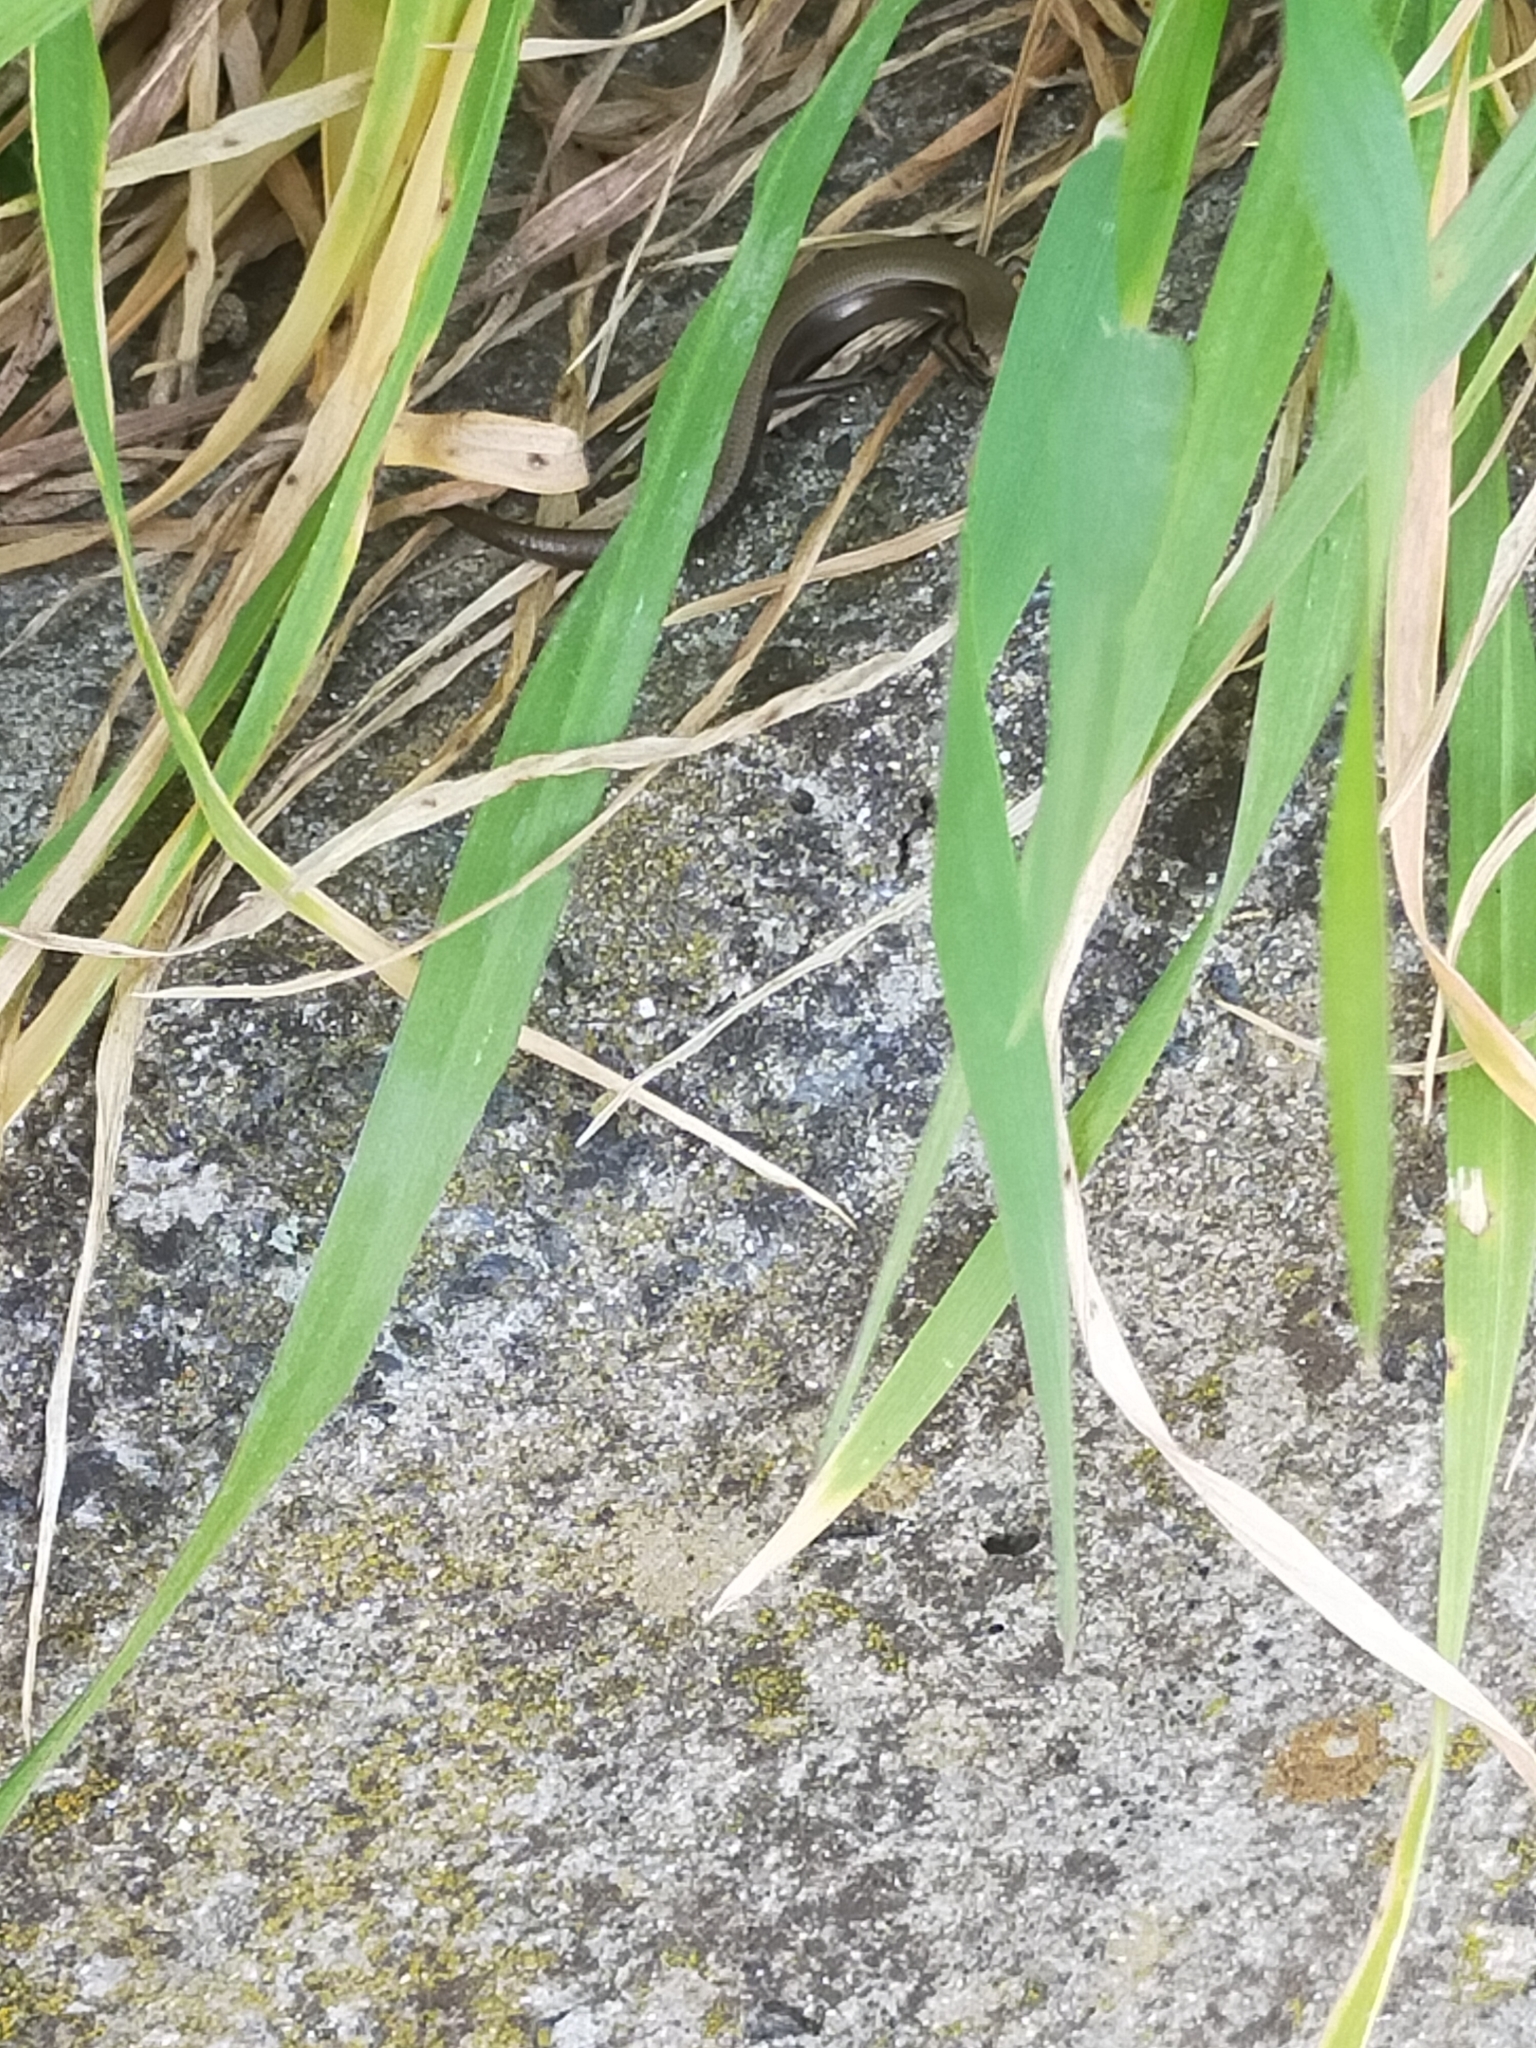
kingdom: Animalia
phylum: Chordata
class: Squamata
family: Scincidae
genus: Ablepharus
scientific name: Ablepharus kitaibelii
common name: Juniper skink
